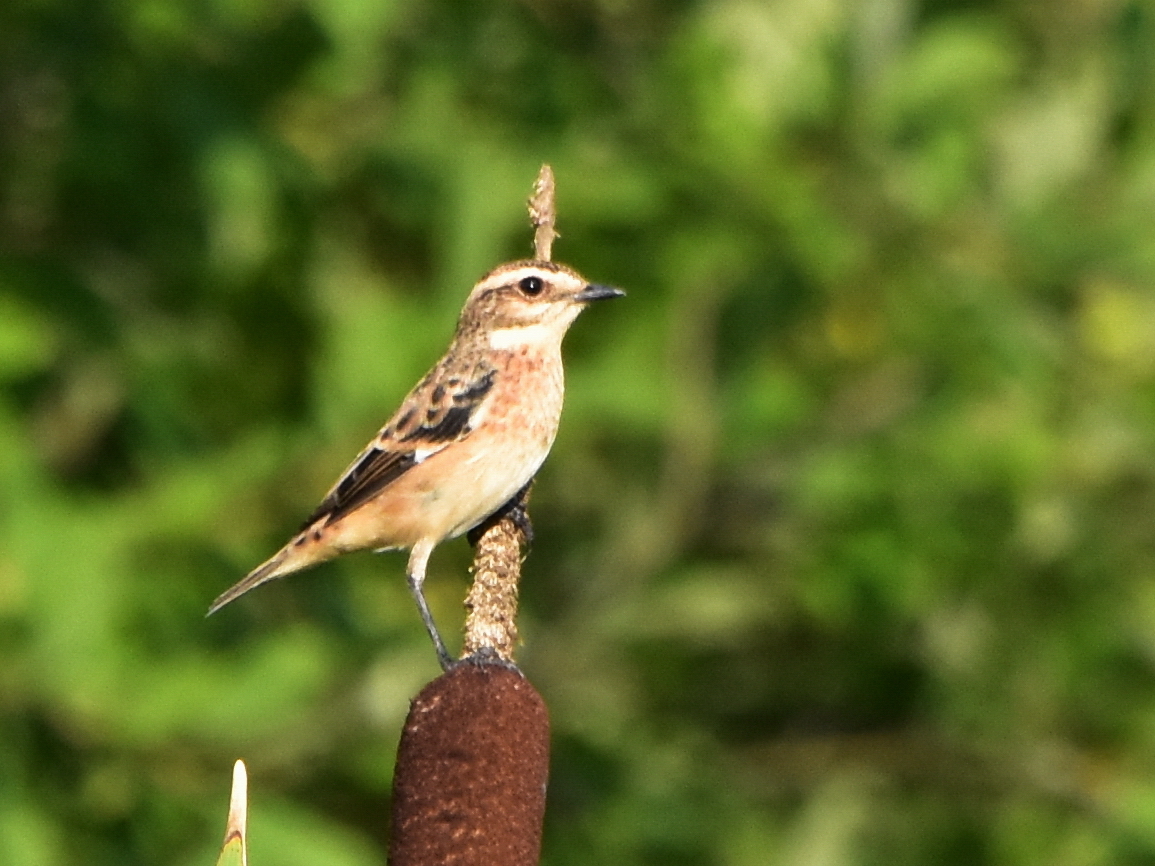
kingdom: Animalia
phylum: Chordata
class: Aves
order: Passeriformes
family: Muscicapidae
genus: Saxicola
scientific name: Saxicola maurus
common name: Siberian stonechat
